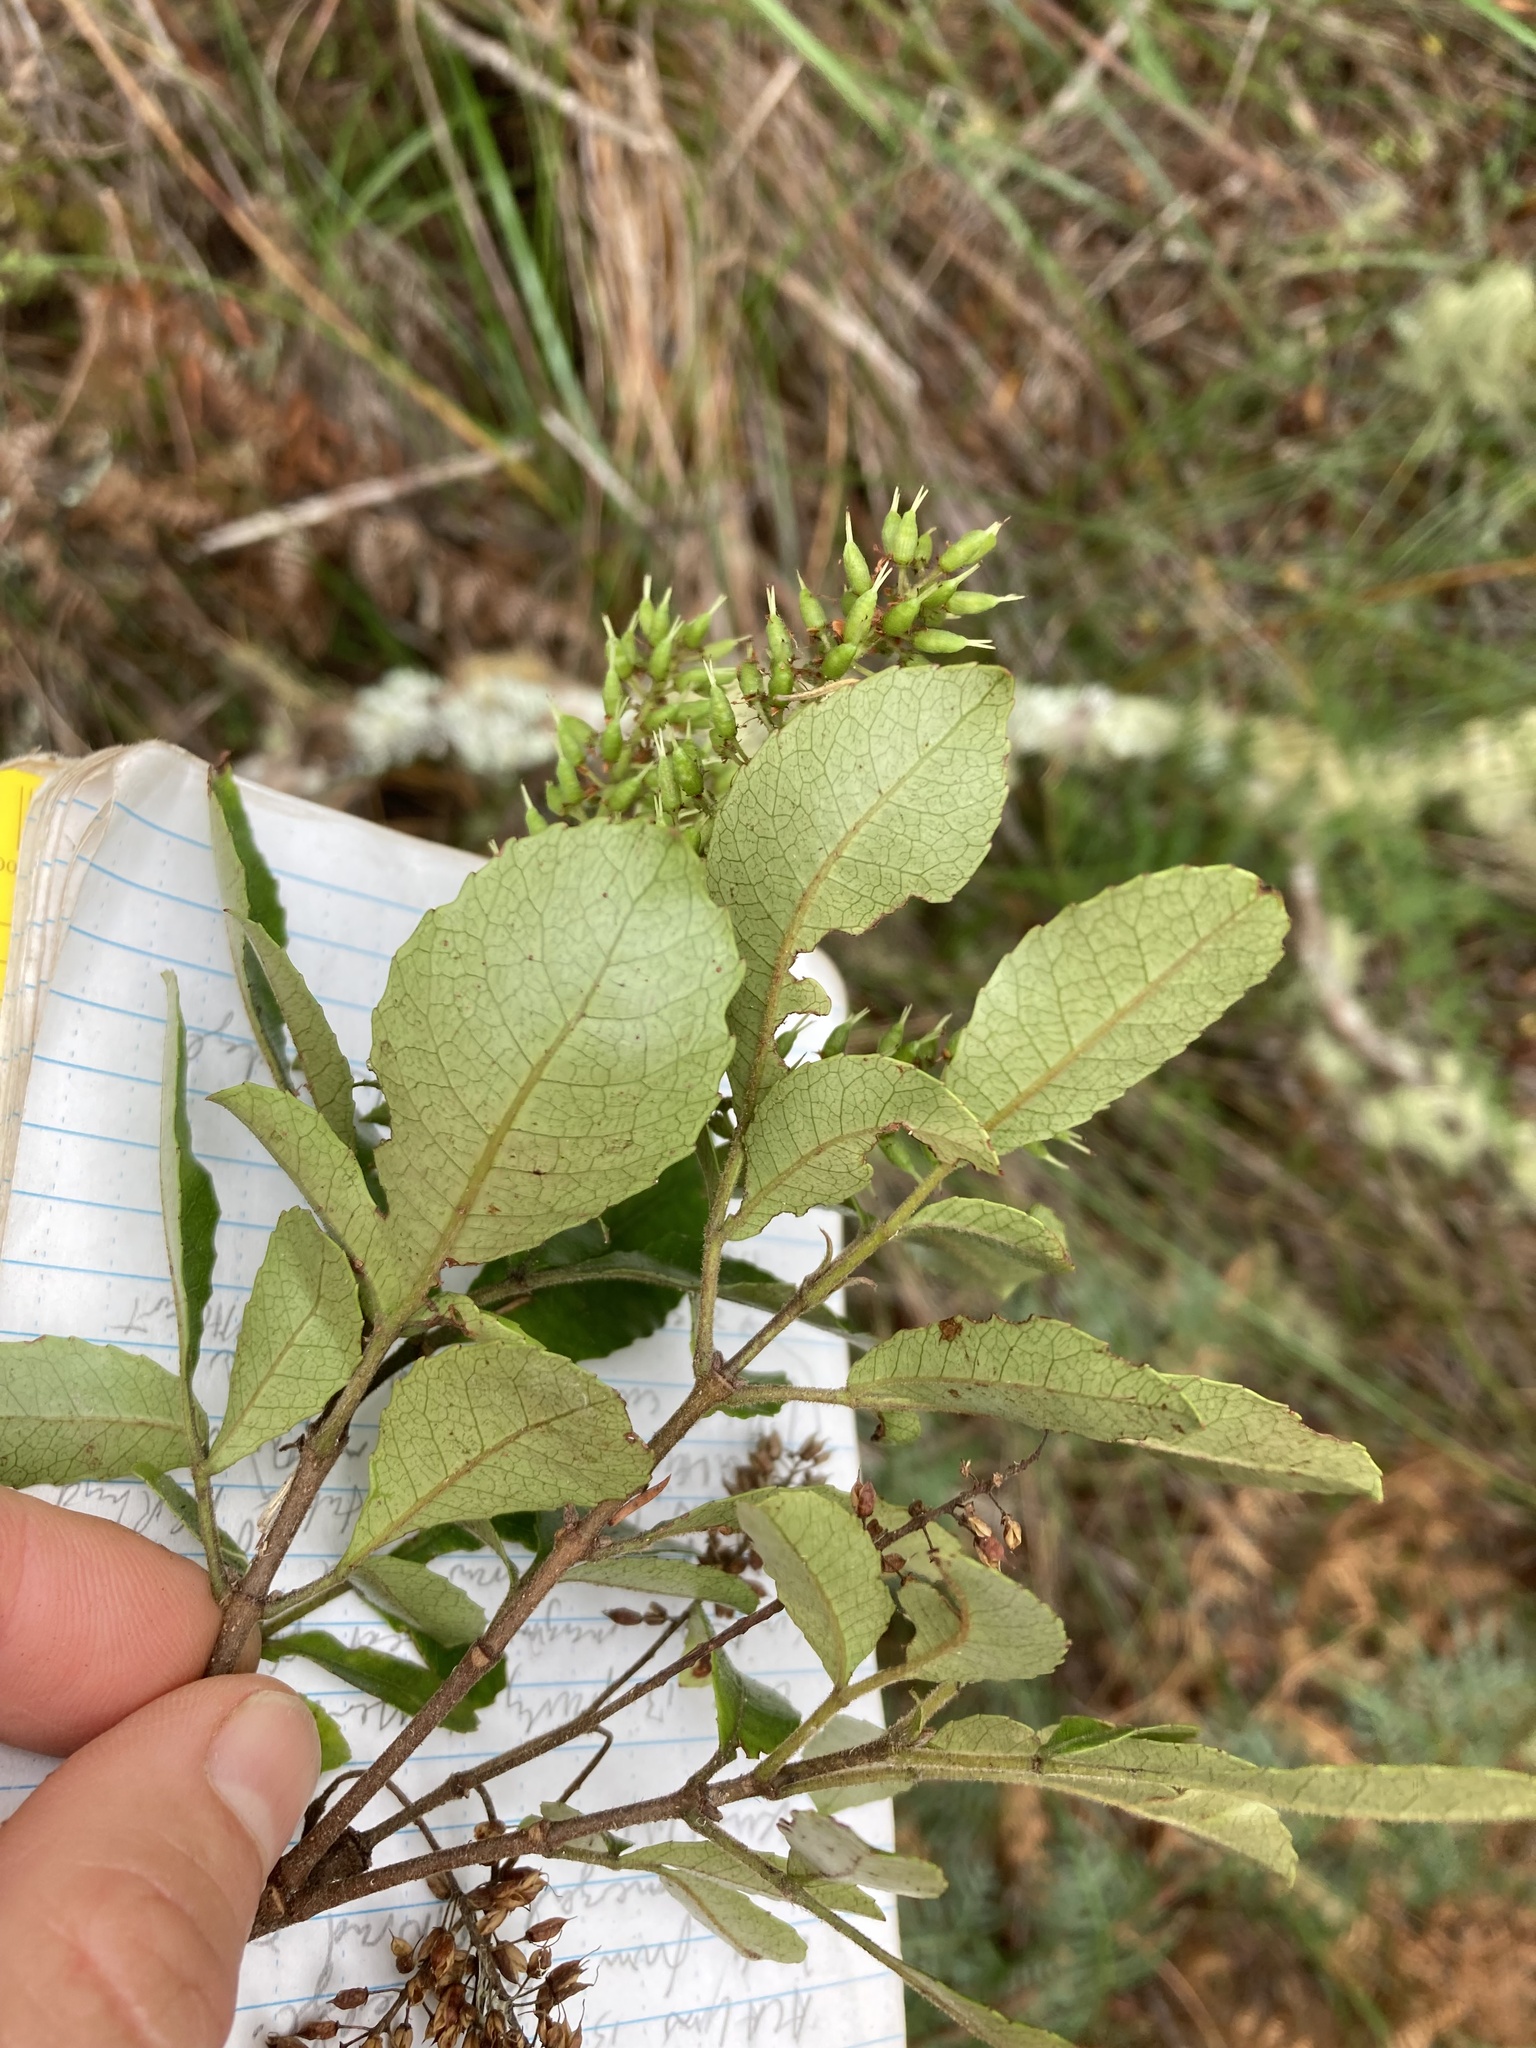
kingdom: Plantae
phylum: Tracheophyta
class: Magnoliopsida
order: Oxalidales
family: Cunoniaceae
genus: Pterophylla
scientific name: Pterophylla sylvicola
